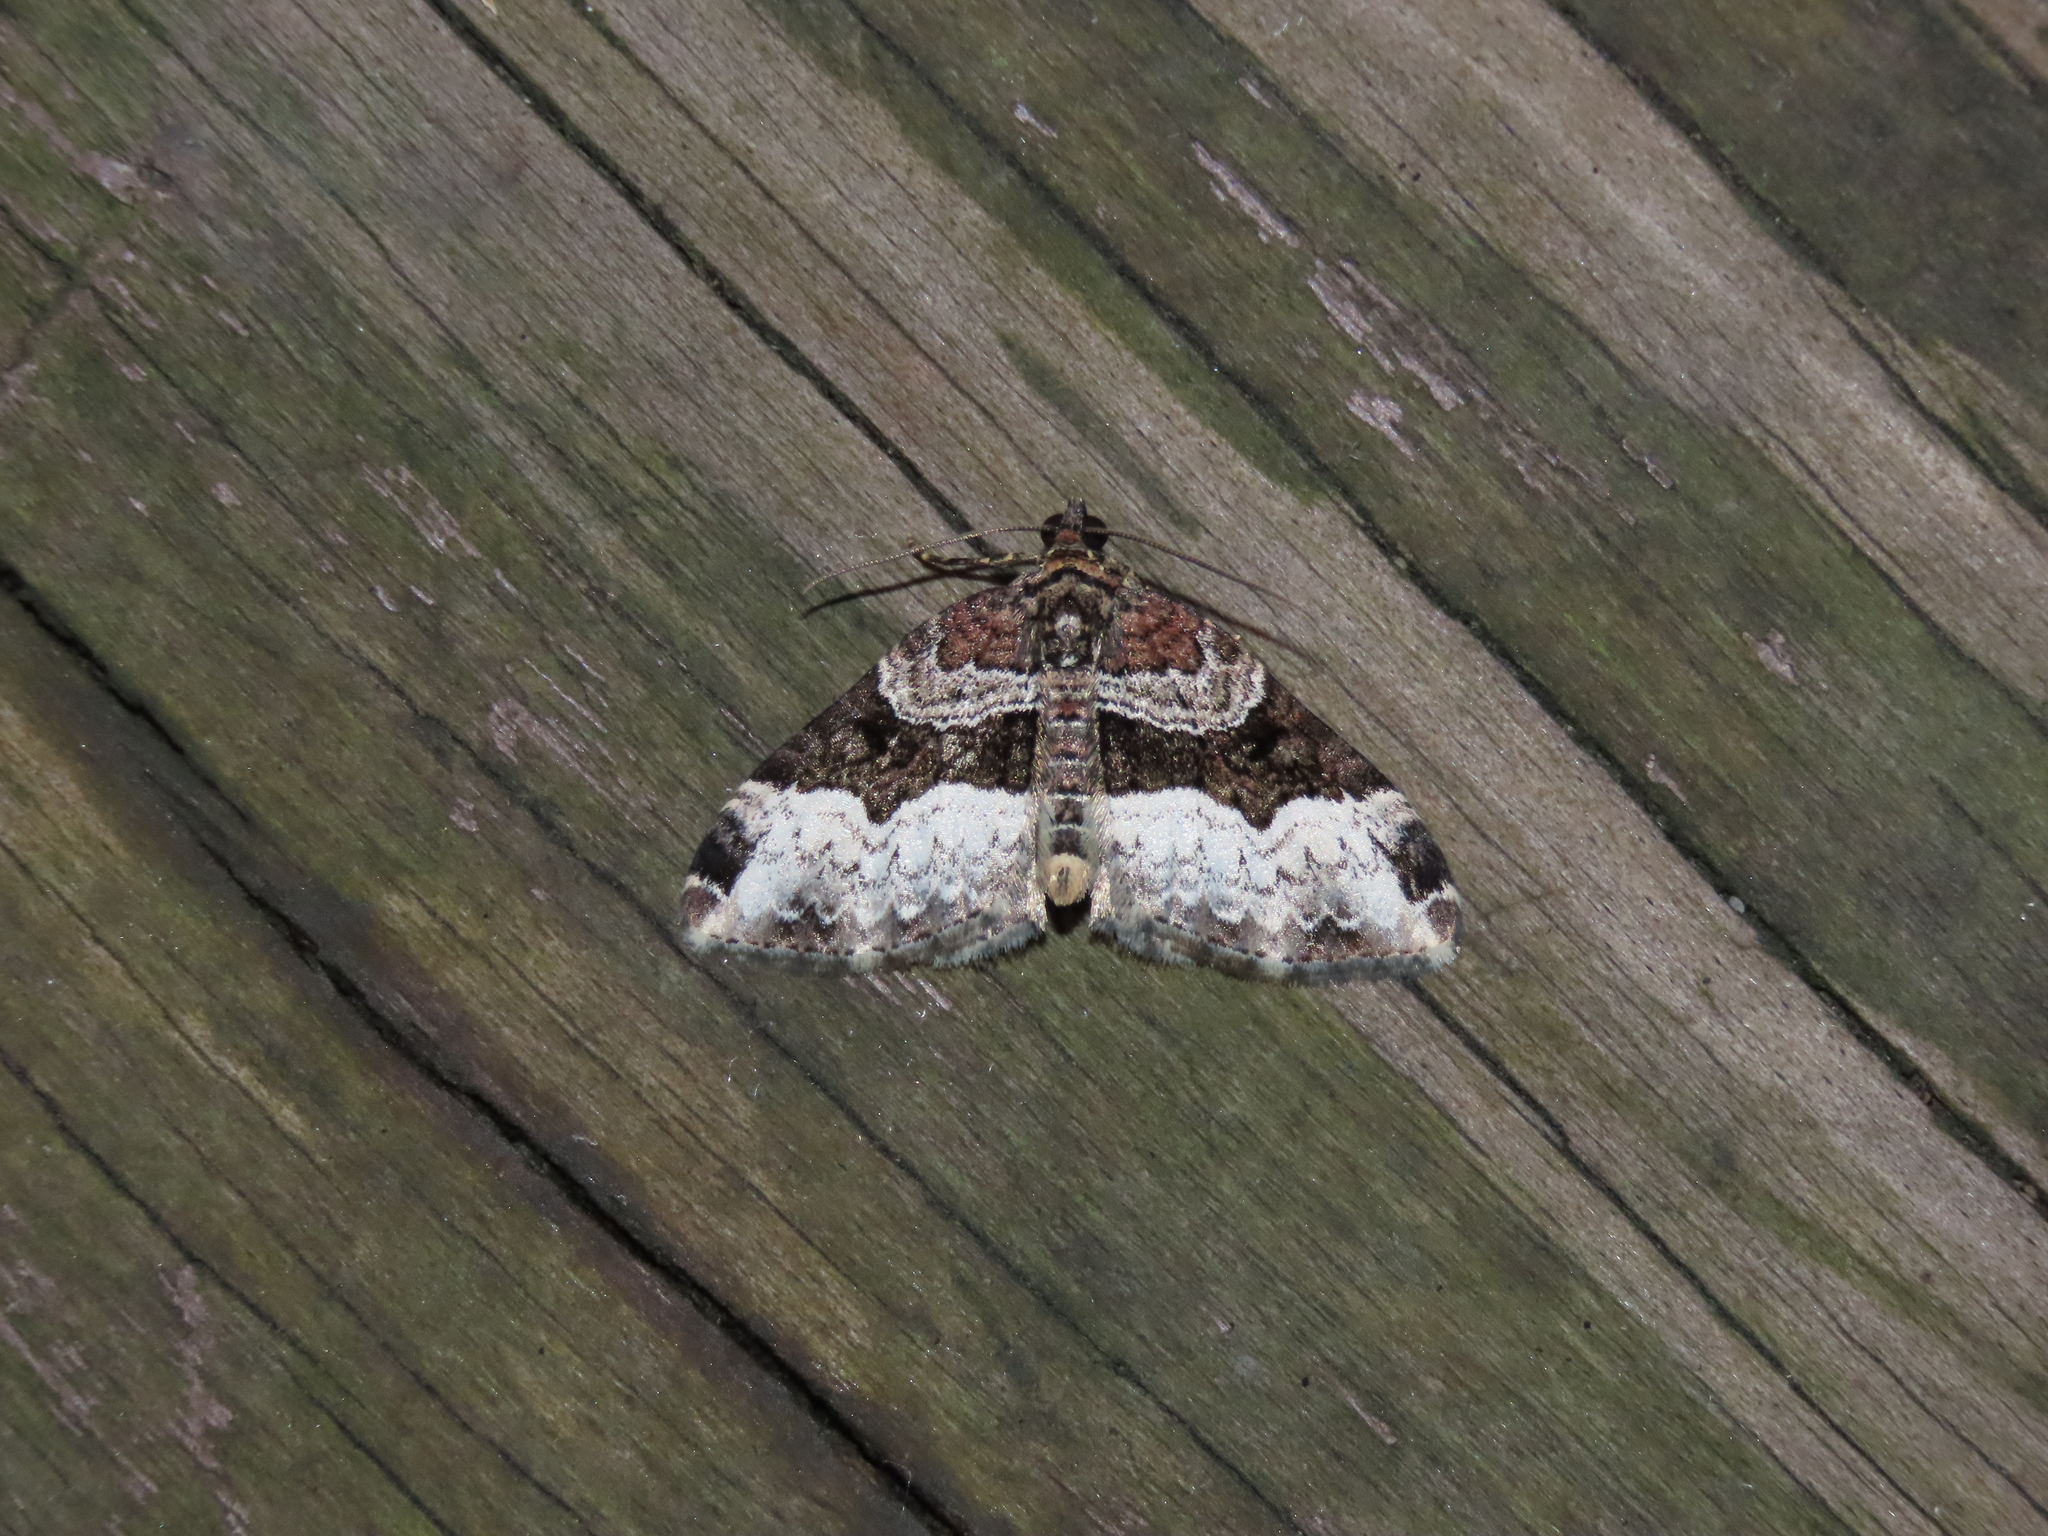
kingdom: Animalia
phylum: Arthropoda
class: Insecta
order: Lepidoptera
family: Geometridae
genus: Euphyia
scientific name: Euphyia intermediata
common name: Sharp-angled carpet
